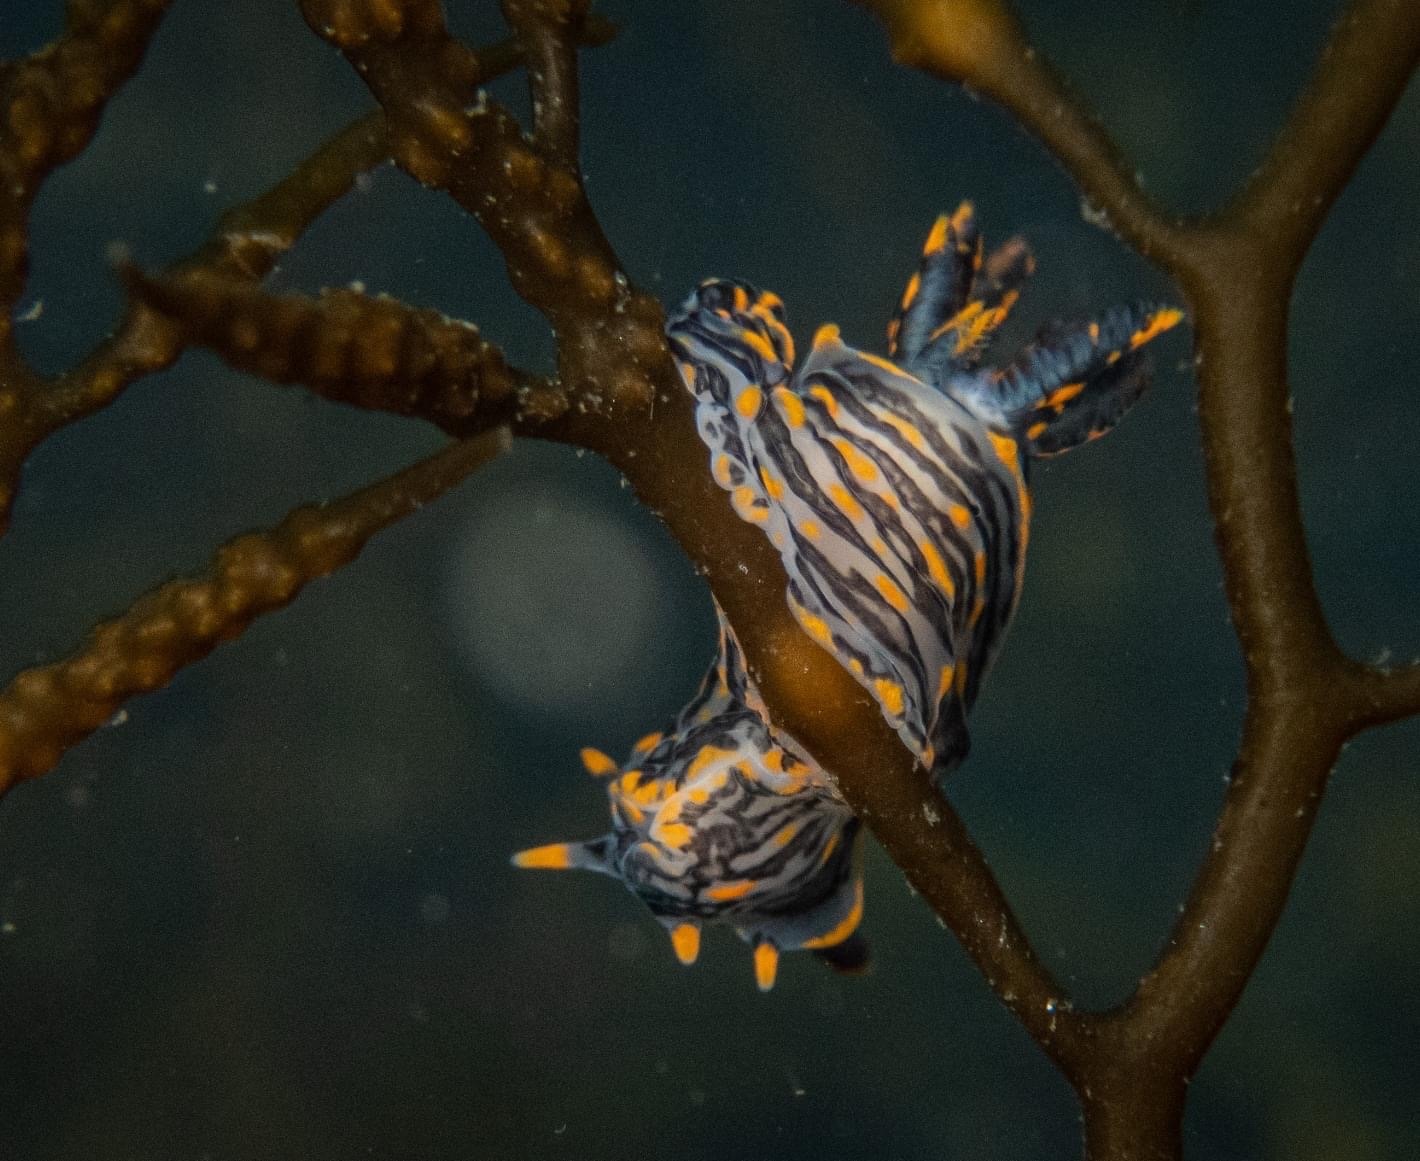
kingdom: Animalia
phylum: Mollusca
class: Gastropoda
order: Nudibranchia
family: Polyceridae
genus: Polycera
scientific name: Polycera atra
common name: Orange-spike polycera
